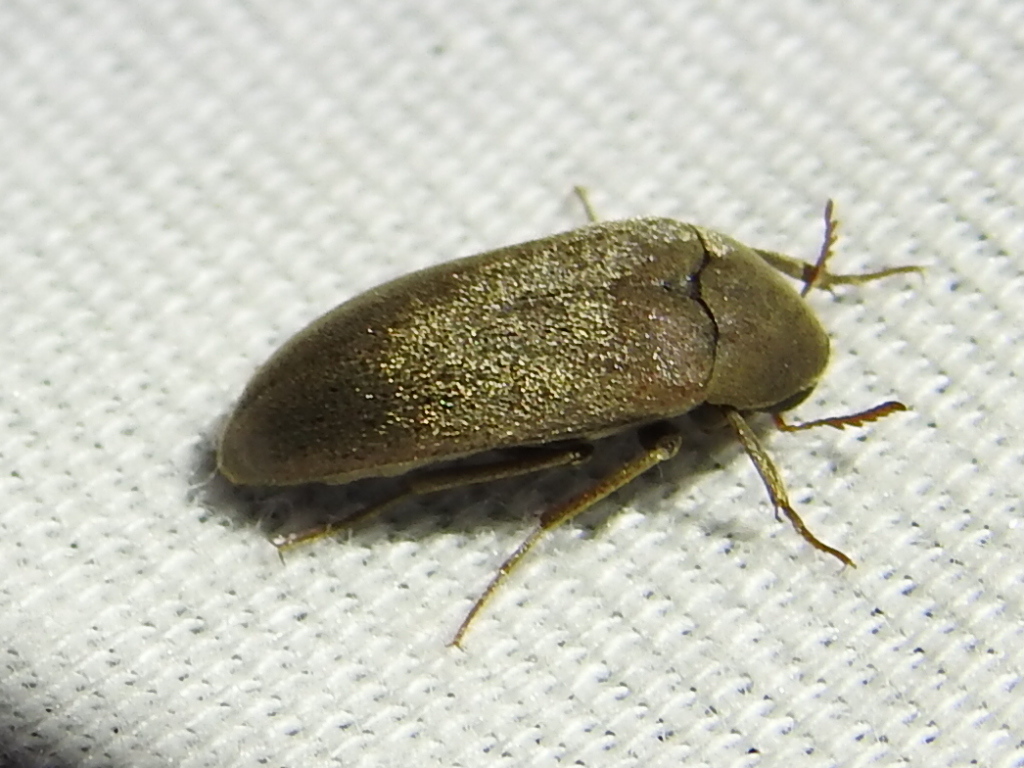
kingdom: Animalia
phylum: Arthropoda
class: Insecta
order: Coleoptera
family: Ripiphoridae
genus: Trigonodera
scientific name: Trigonodera schaefferi
